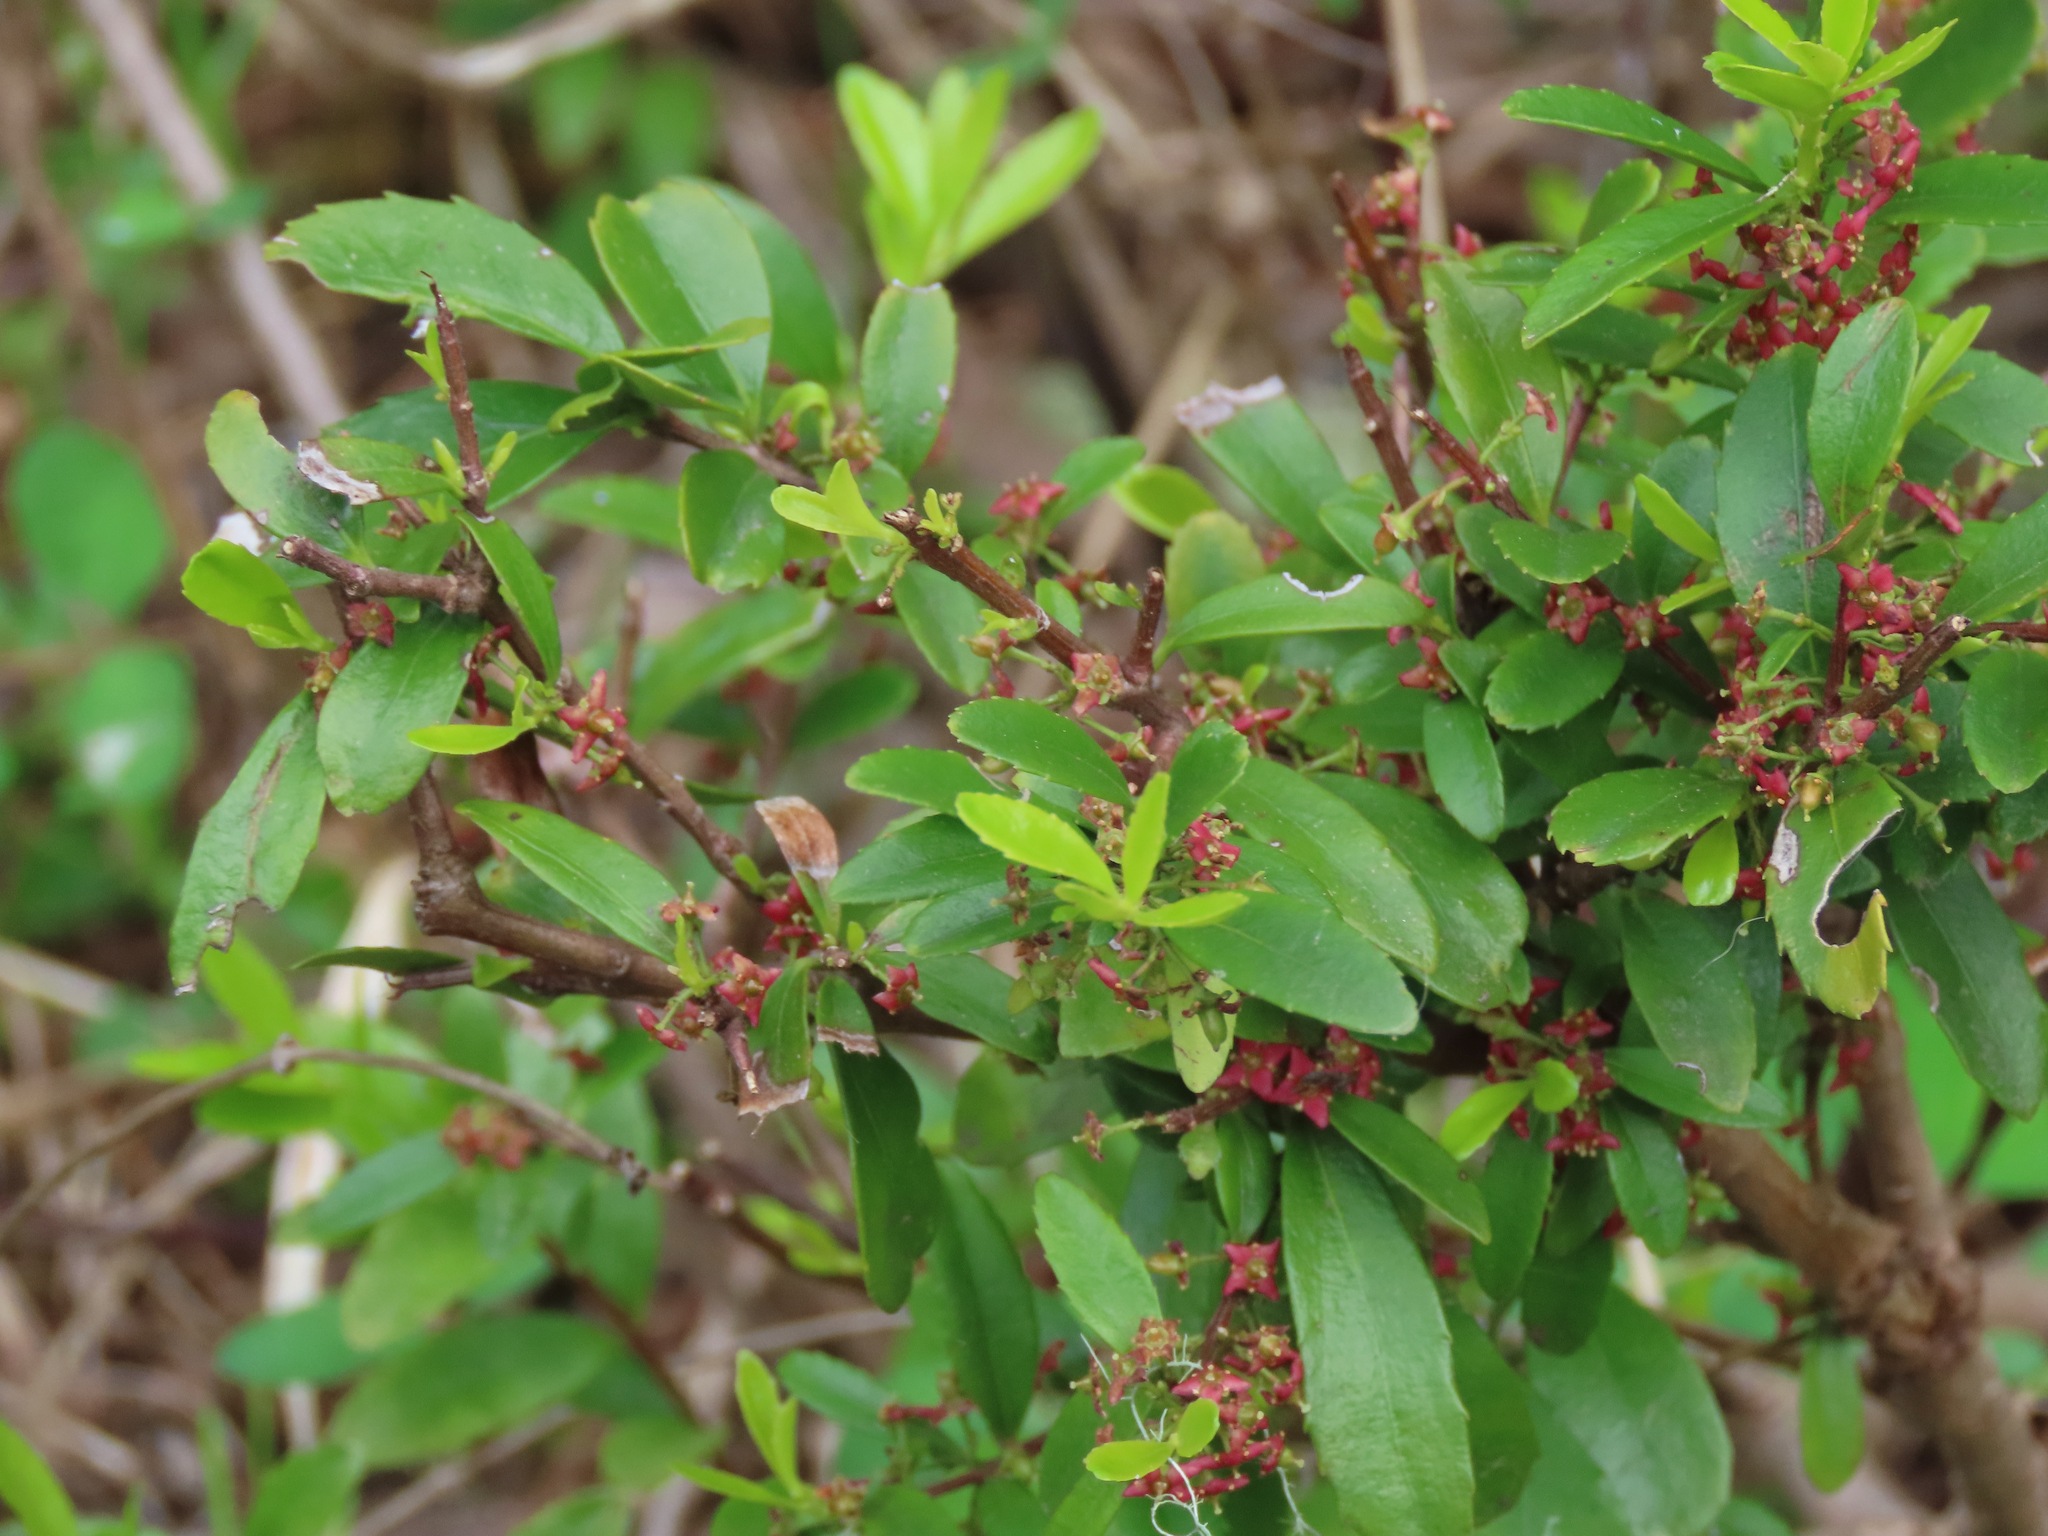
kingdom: Plantae
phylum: Tracheophyta
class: Magnoliopsida
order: Celastrales
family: Celastraceae
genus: Paxistima
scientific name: Paxistima myrsinites
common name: Mountain-lover
